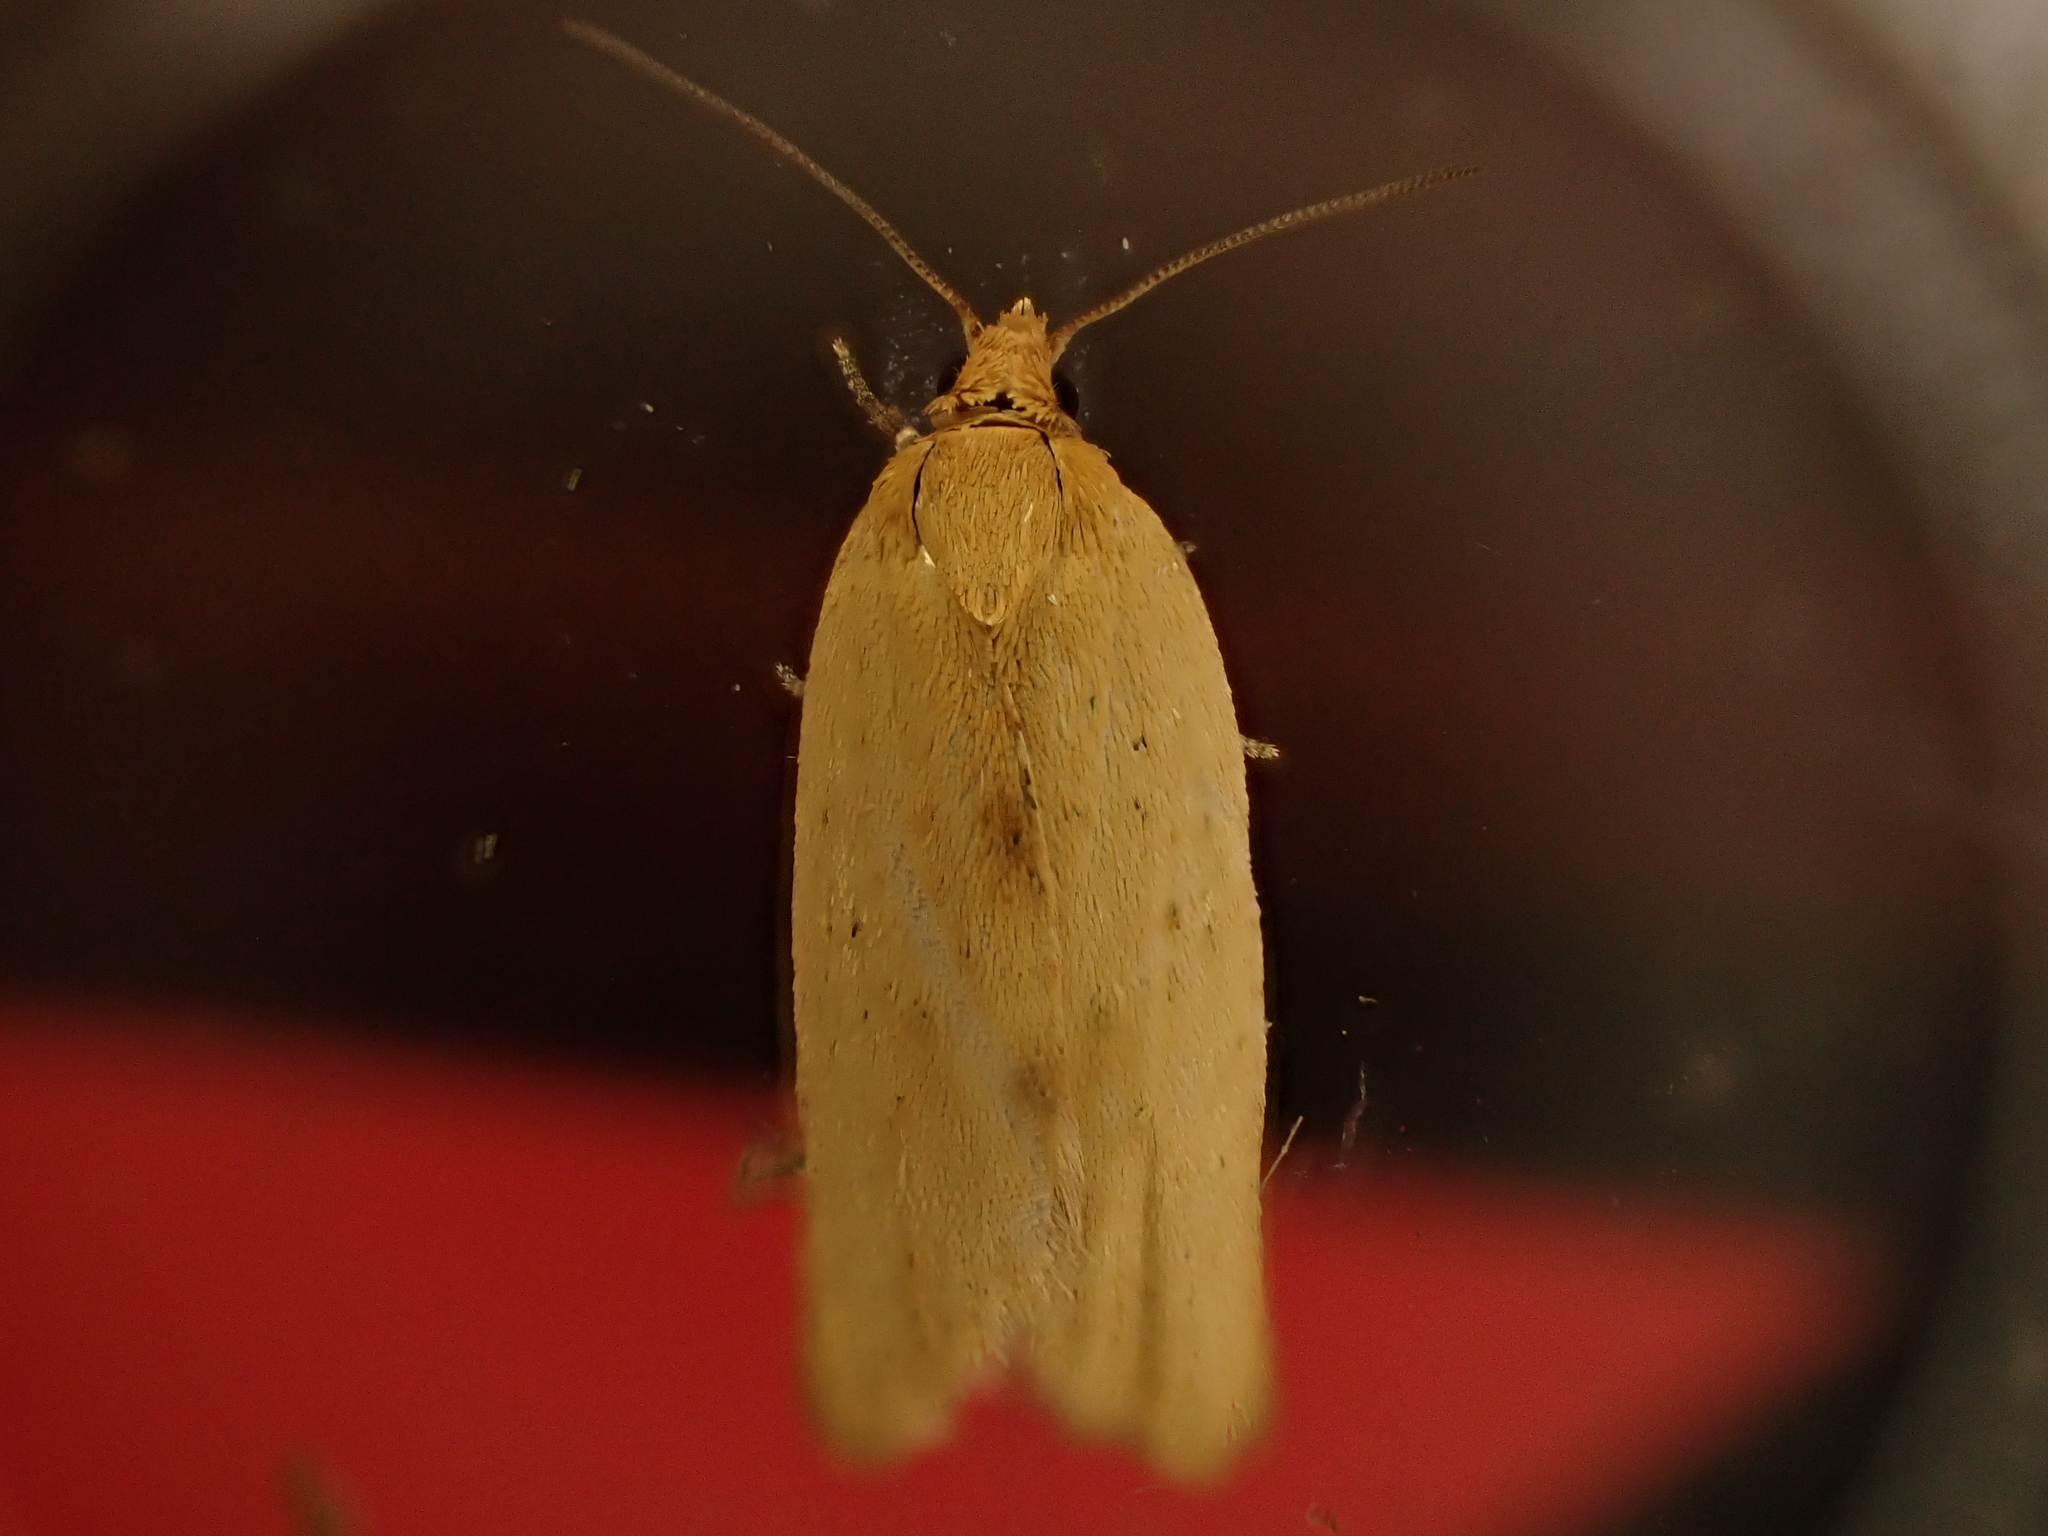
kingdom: Animalia
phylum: Arthropoda
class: Insecta
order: Lepidoptera
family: Tortricidae
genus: Clepsis
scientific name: Clepsis
